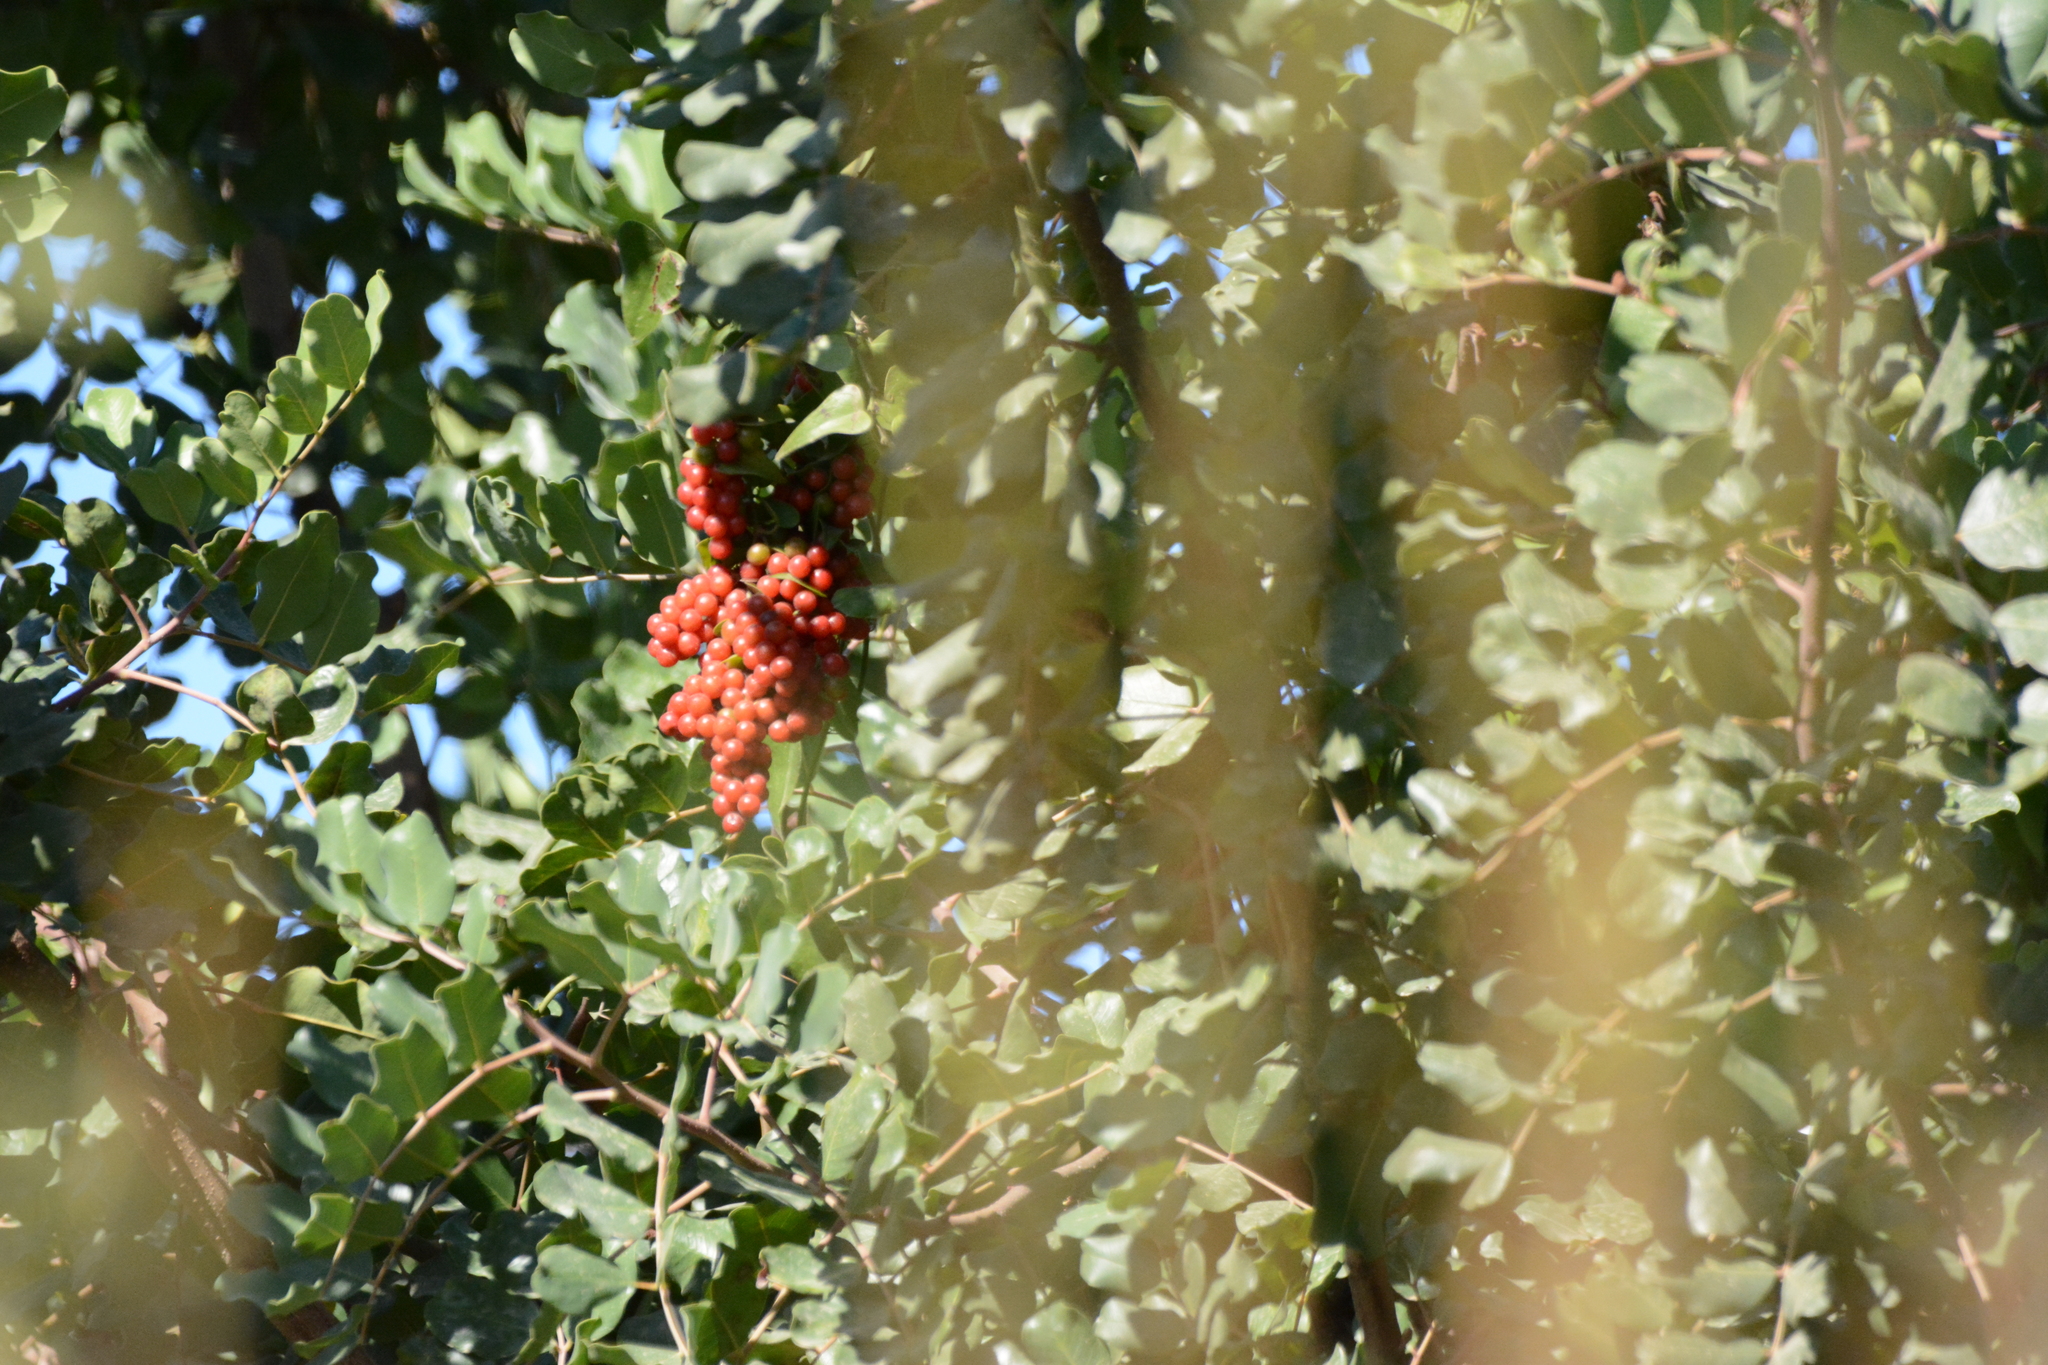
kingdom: Plantae
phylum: Tracheophyta
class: Magnoliopsida
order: Fabales
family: Fabaceae
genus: Ceratonia
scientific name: Ceratonia siliqua
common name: Carob
